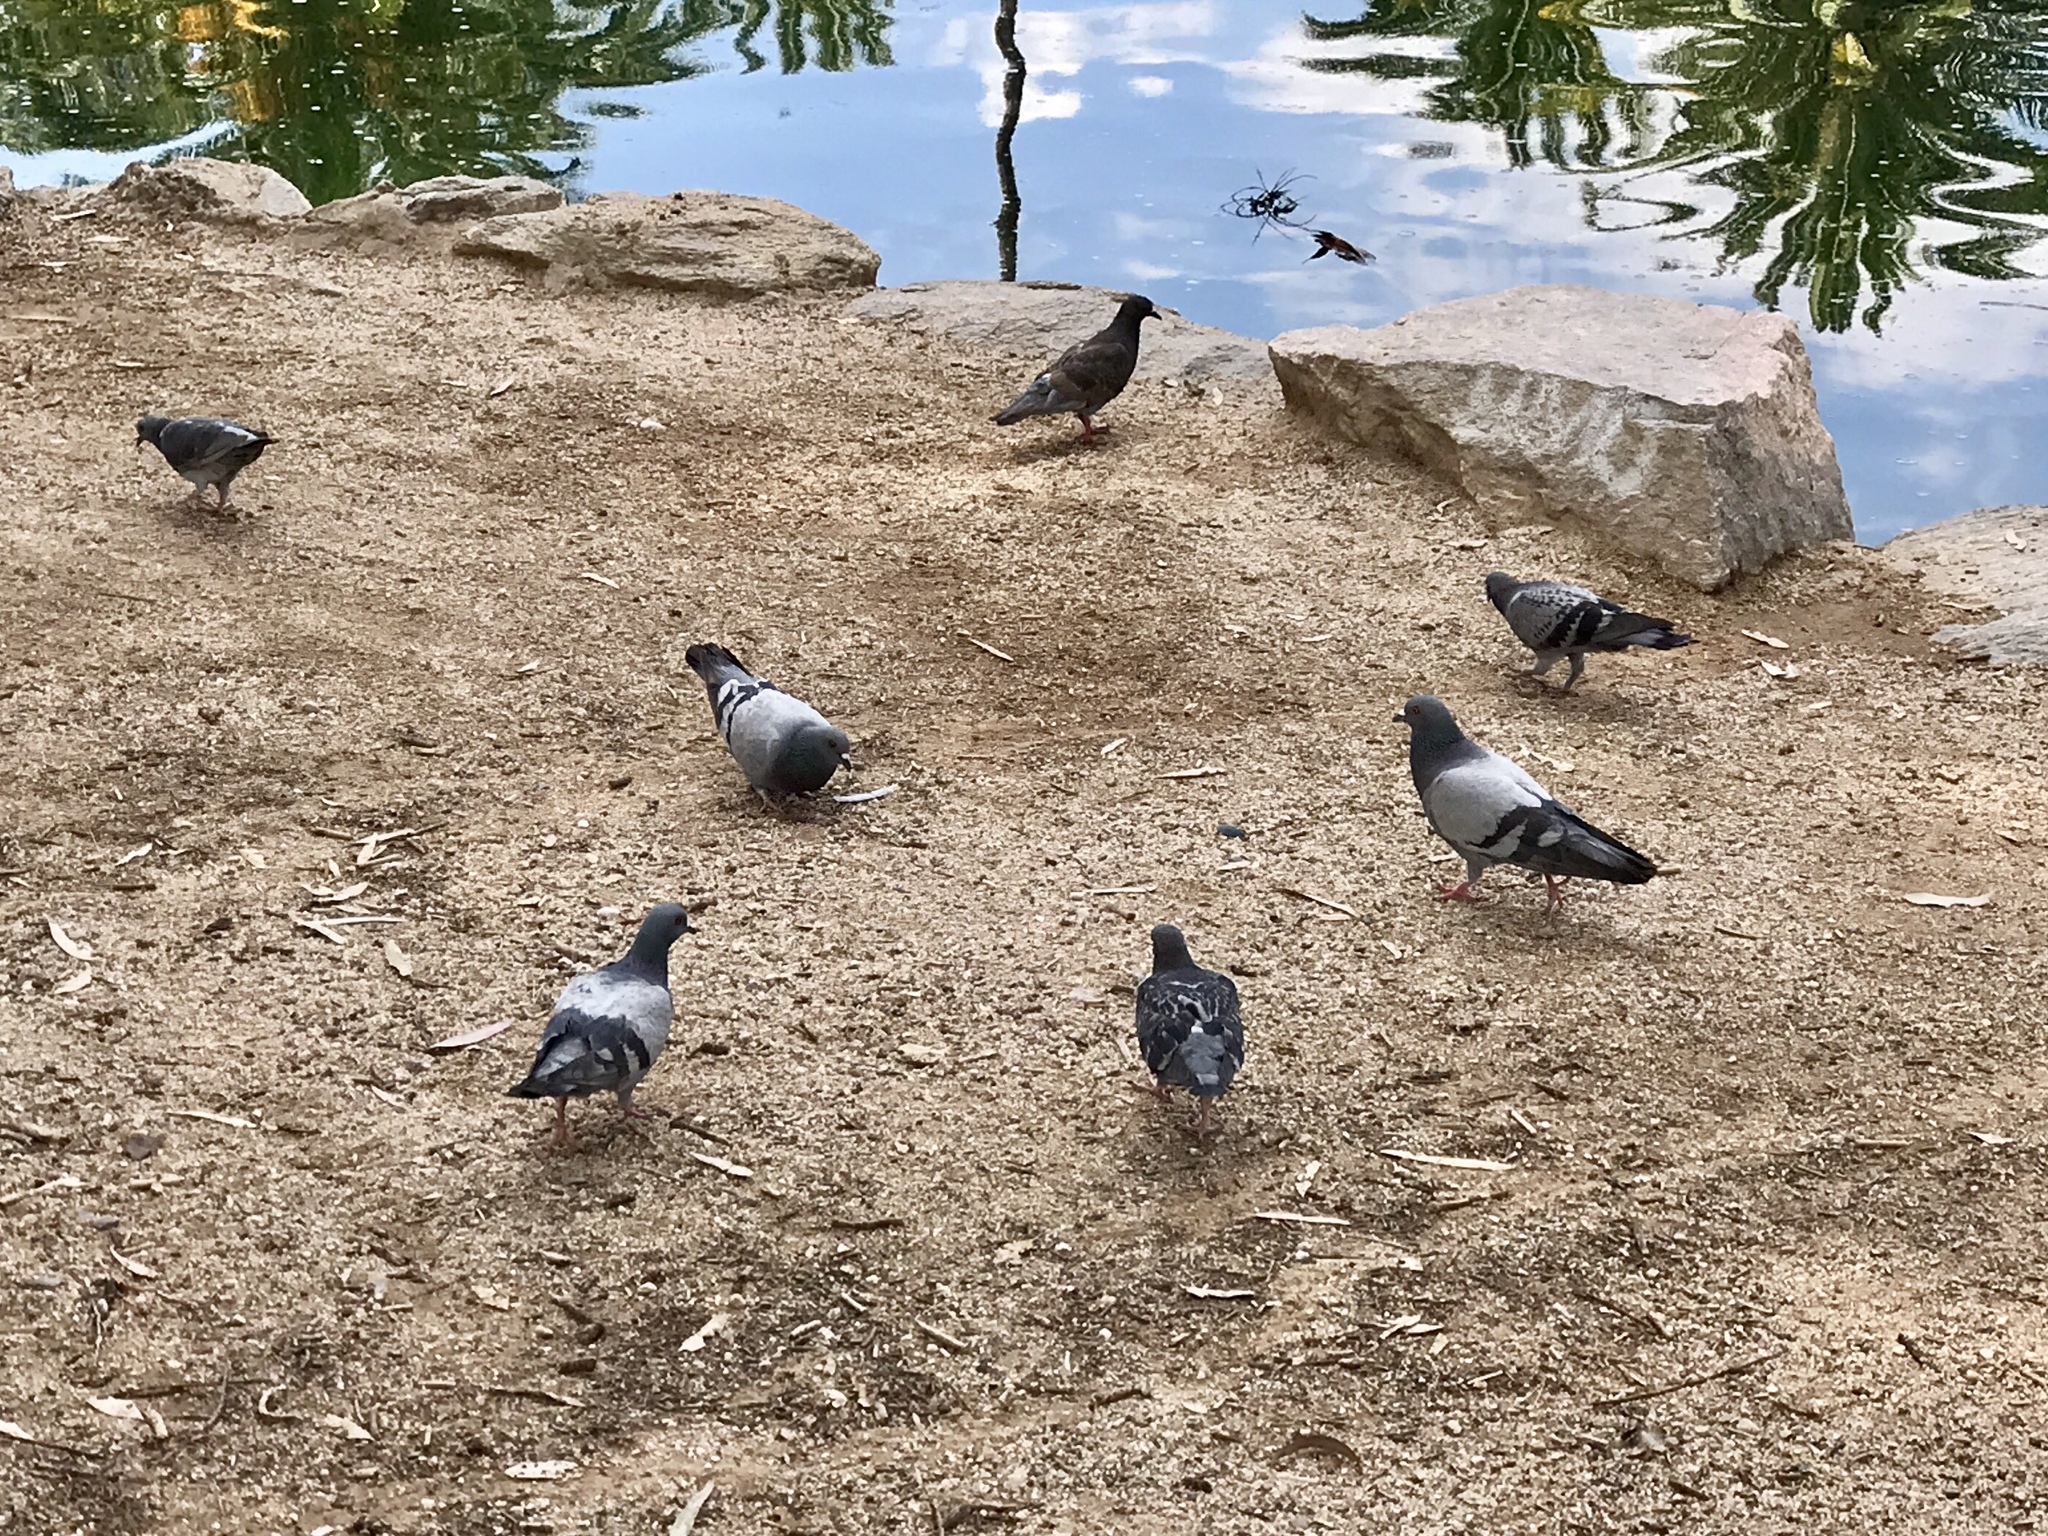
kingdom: Animalia
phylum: Chordata
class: Aves
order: Columbiformes
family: Columbidae
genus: Columba
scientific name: Columba livia
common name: Rock pigeon
